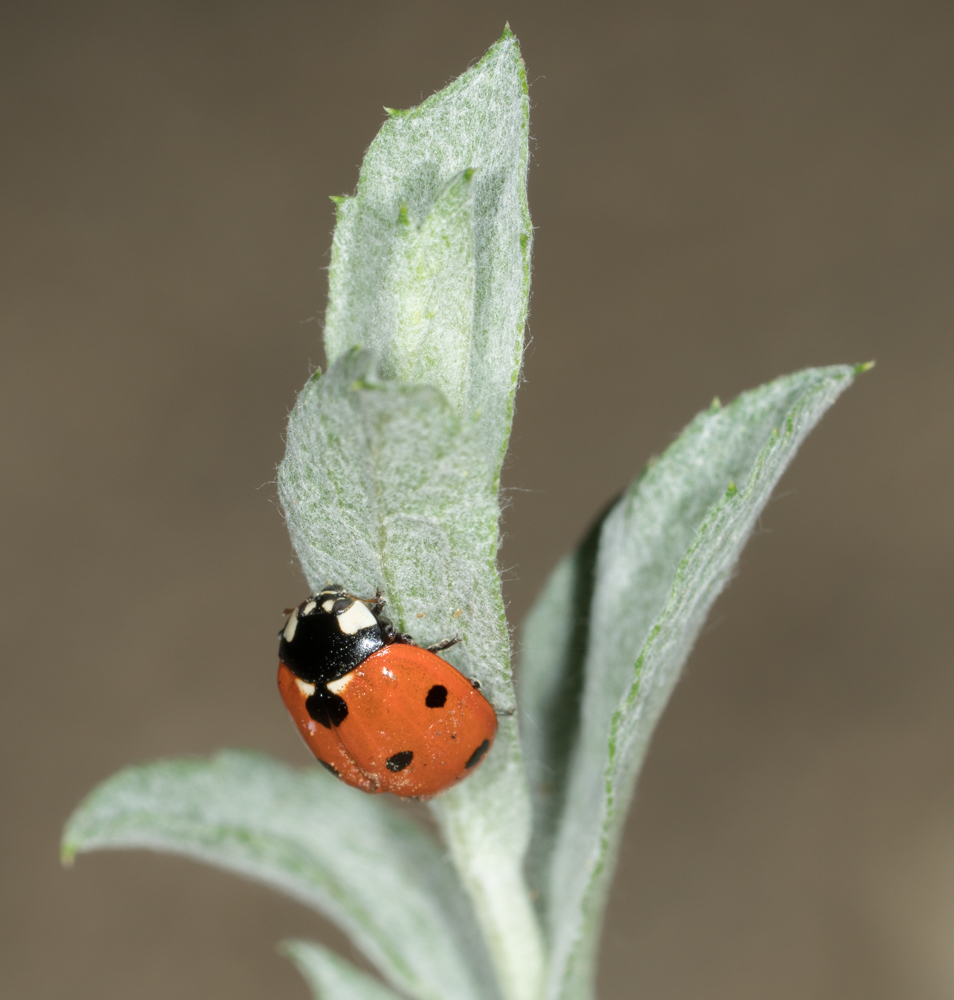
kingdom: Animalia
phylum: Arthropoda
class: Insecta
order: Coleoptera
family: Coccinellidae
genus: Coccinella
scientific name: Coccinella septempunctata
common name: Sevenspotted lady beetle
